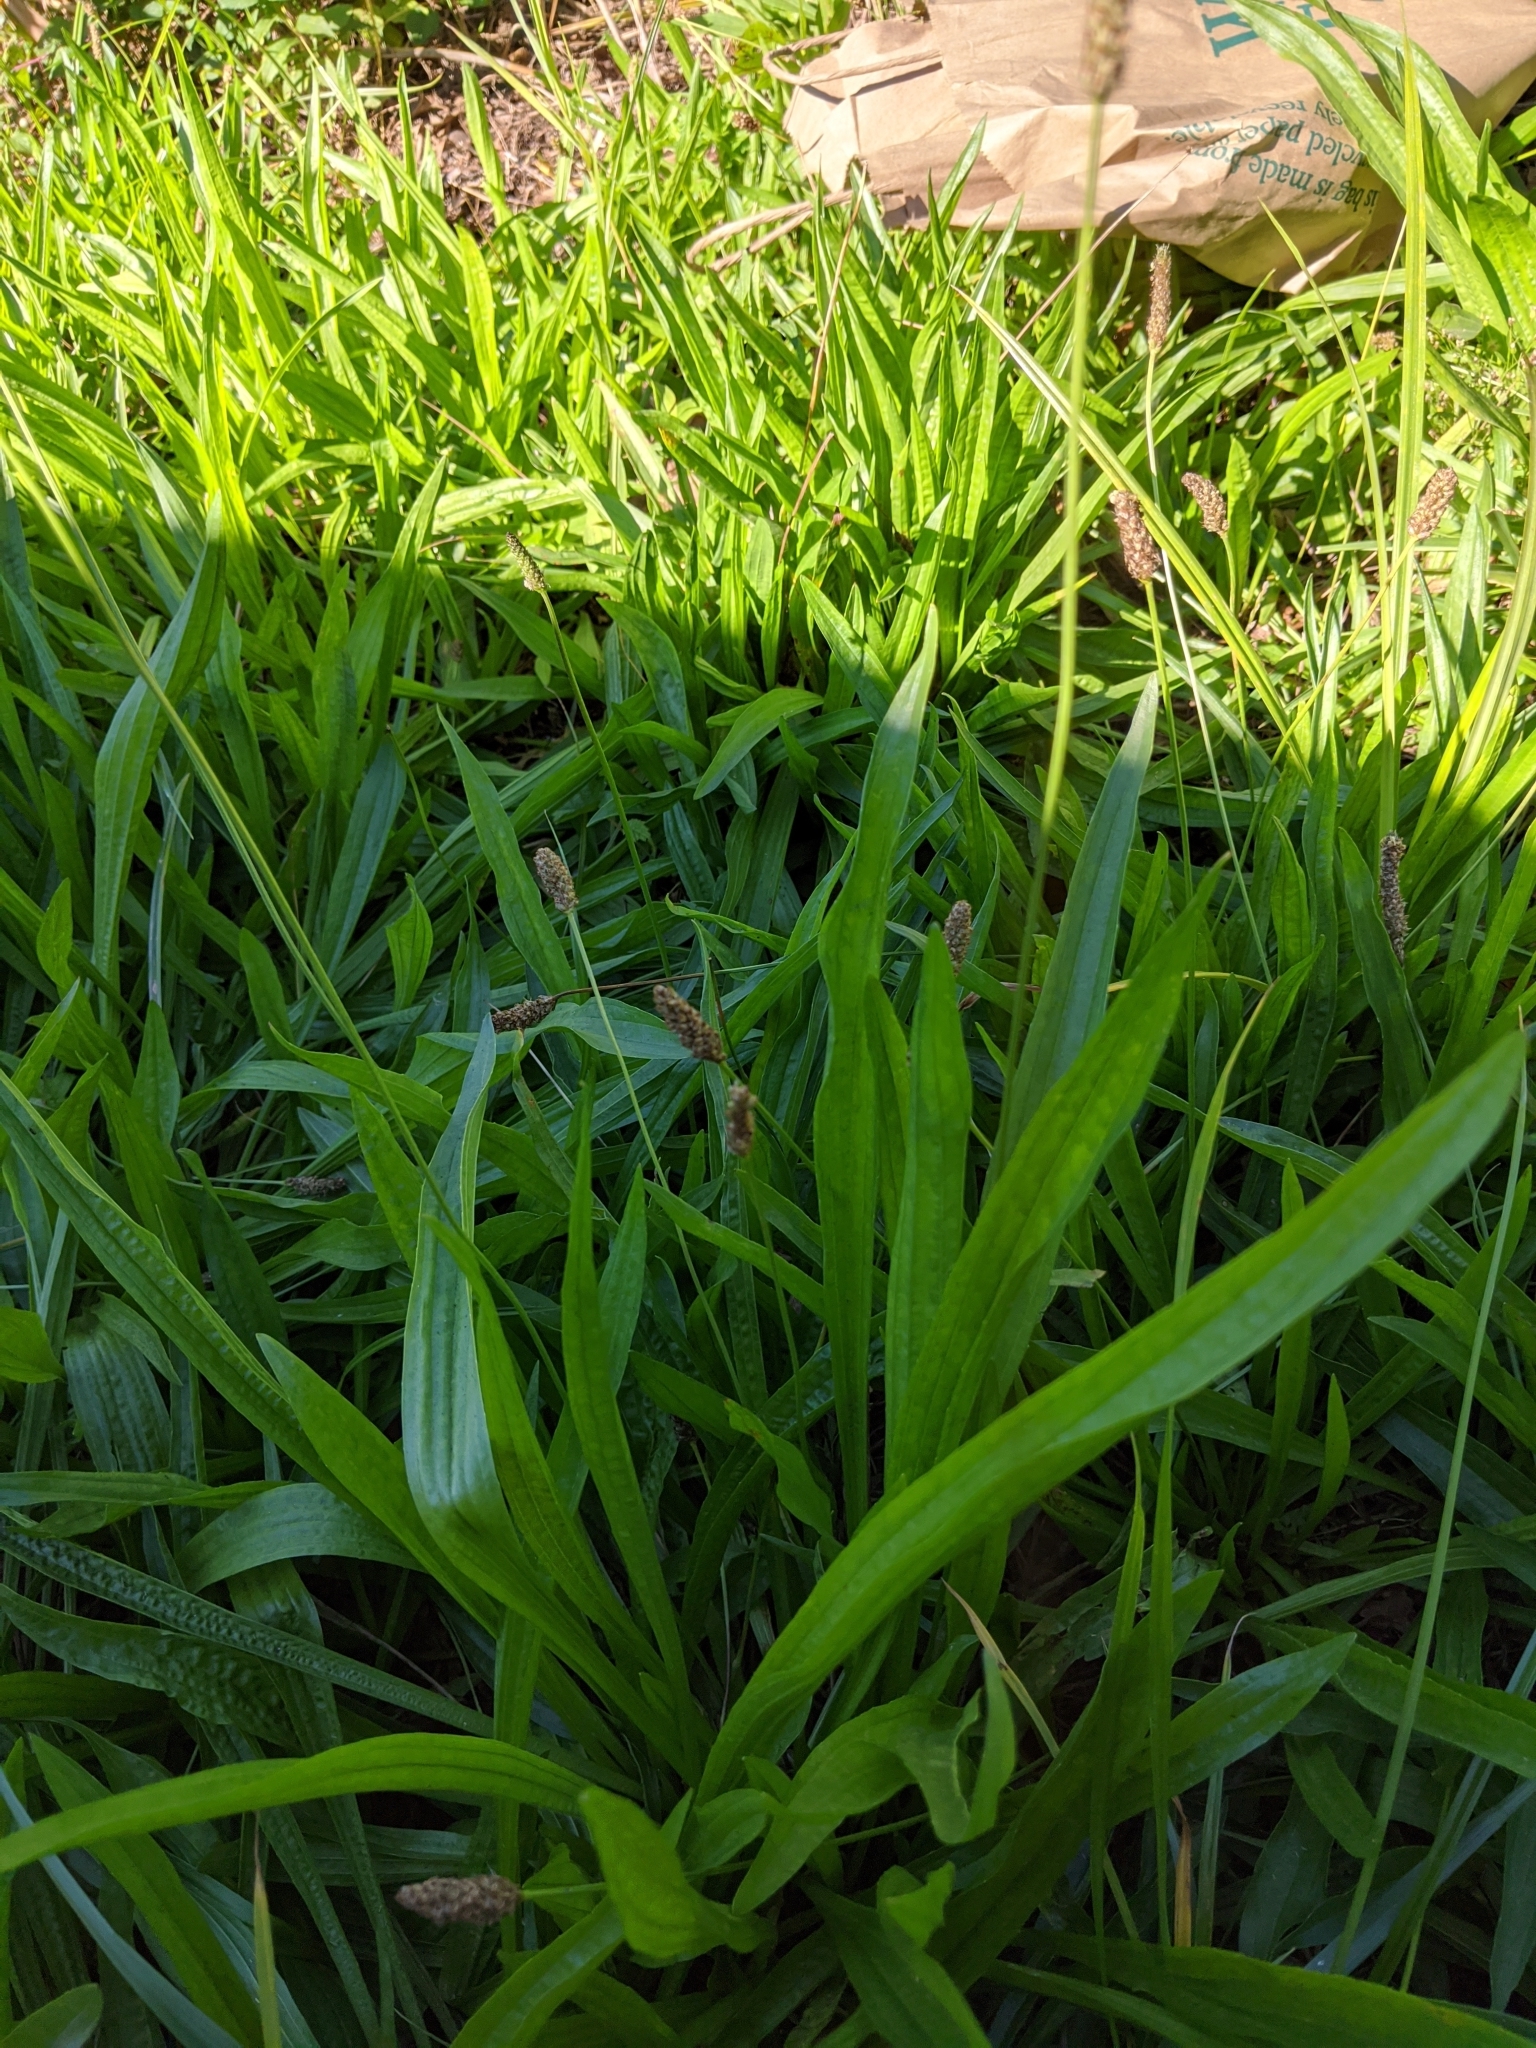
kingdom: Plantae
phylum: Tracheophyta
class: Magnoliopsida
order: Lamiales
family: Plantaginaceae
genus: Plantago
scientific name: Plantago lanceolata
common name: Ribwort plantain
